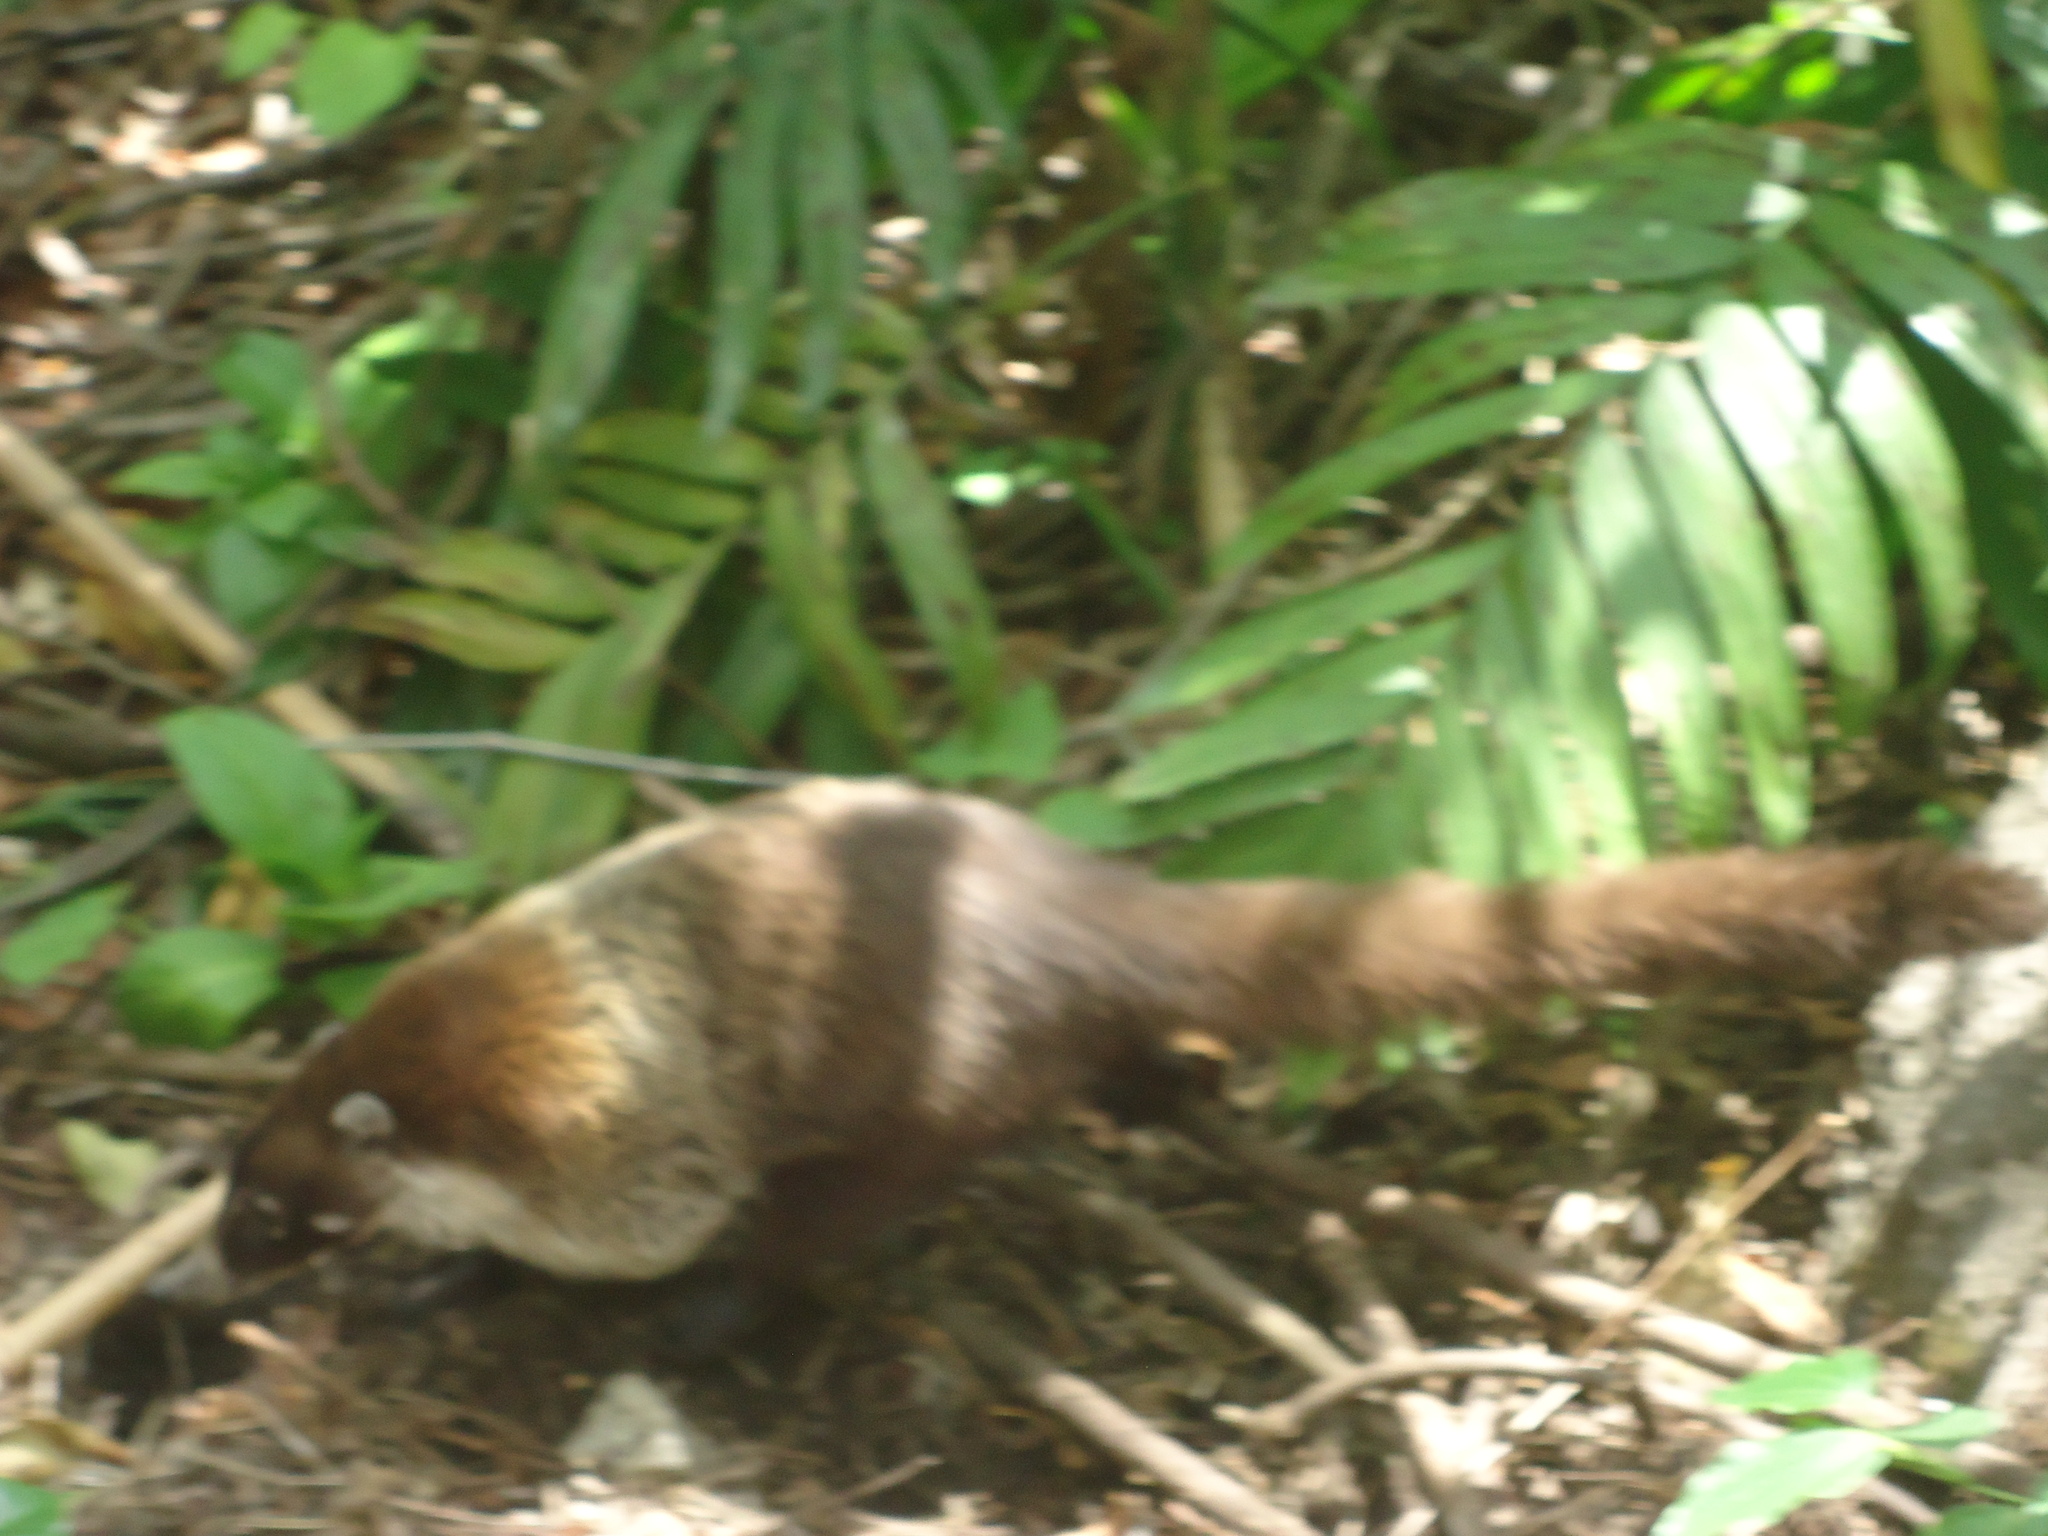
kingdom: Animalia
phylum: Chordata
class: Mammalia
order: Carnivora
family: Procyonidae
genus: Nasua
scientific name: Nasua narica
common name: White-nosed coati
